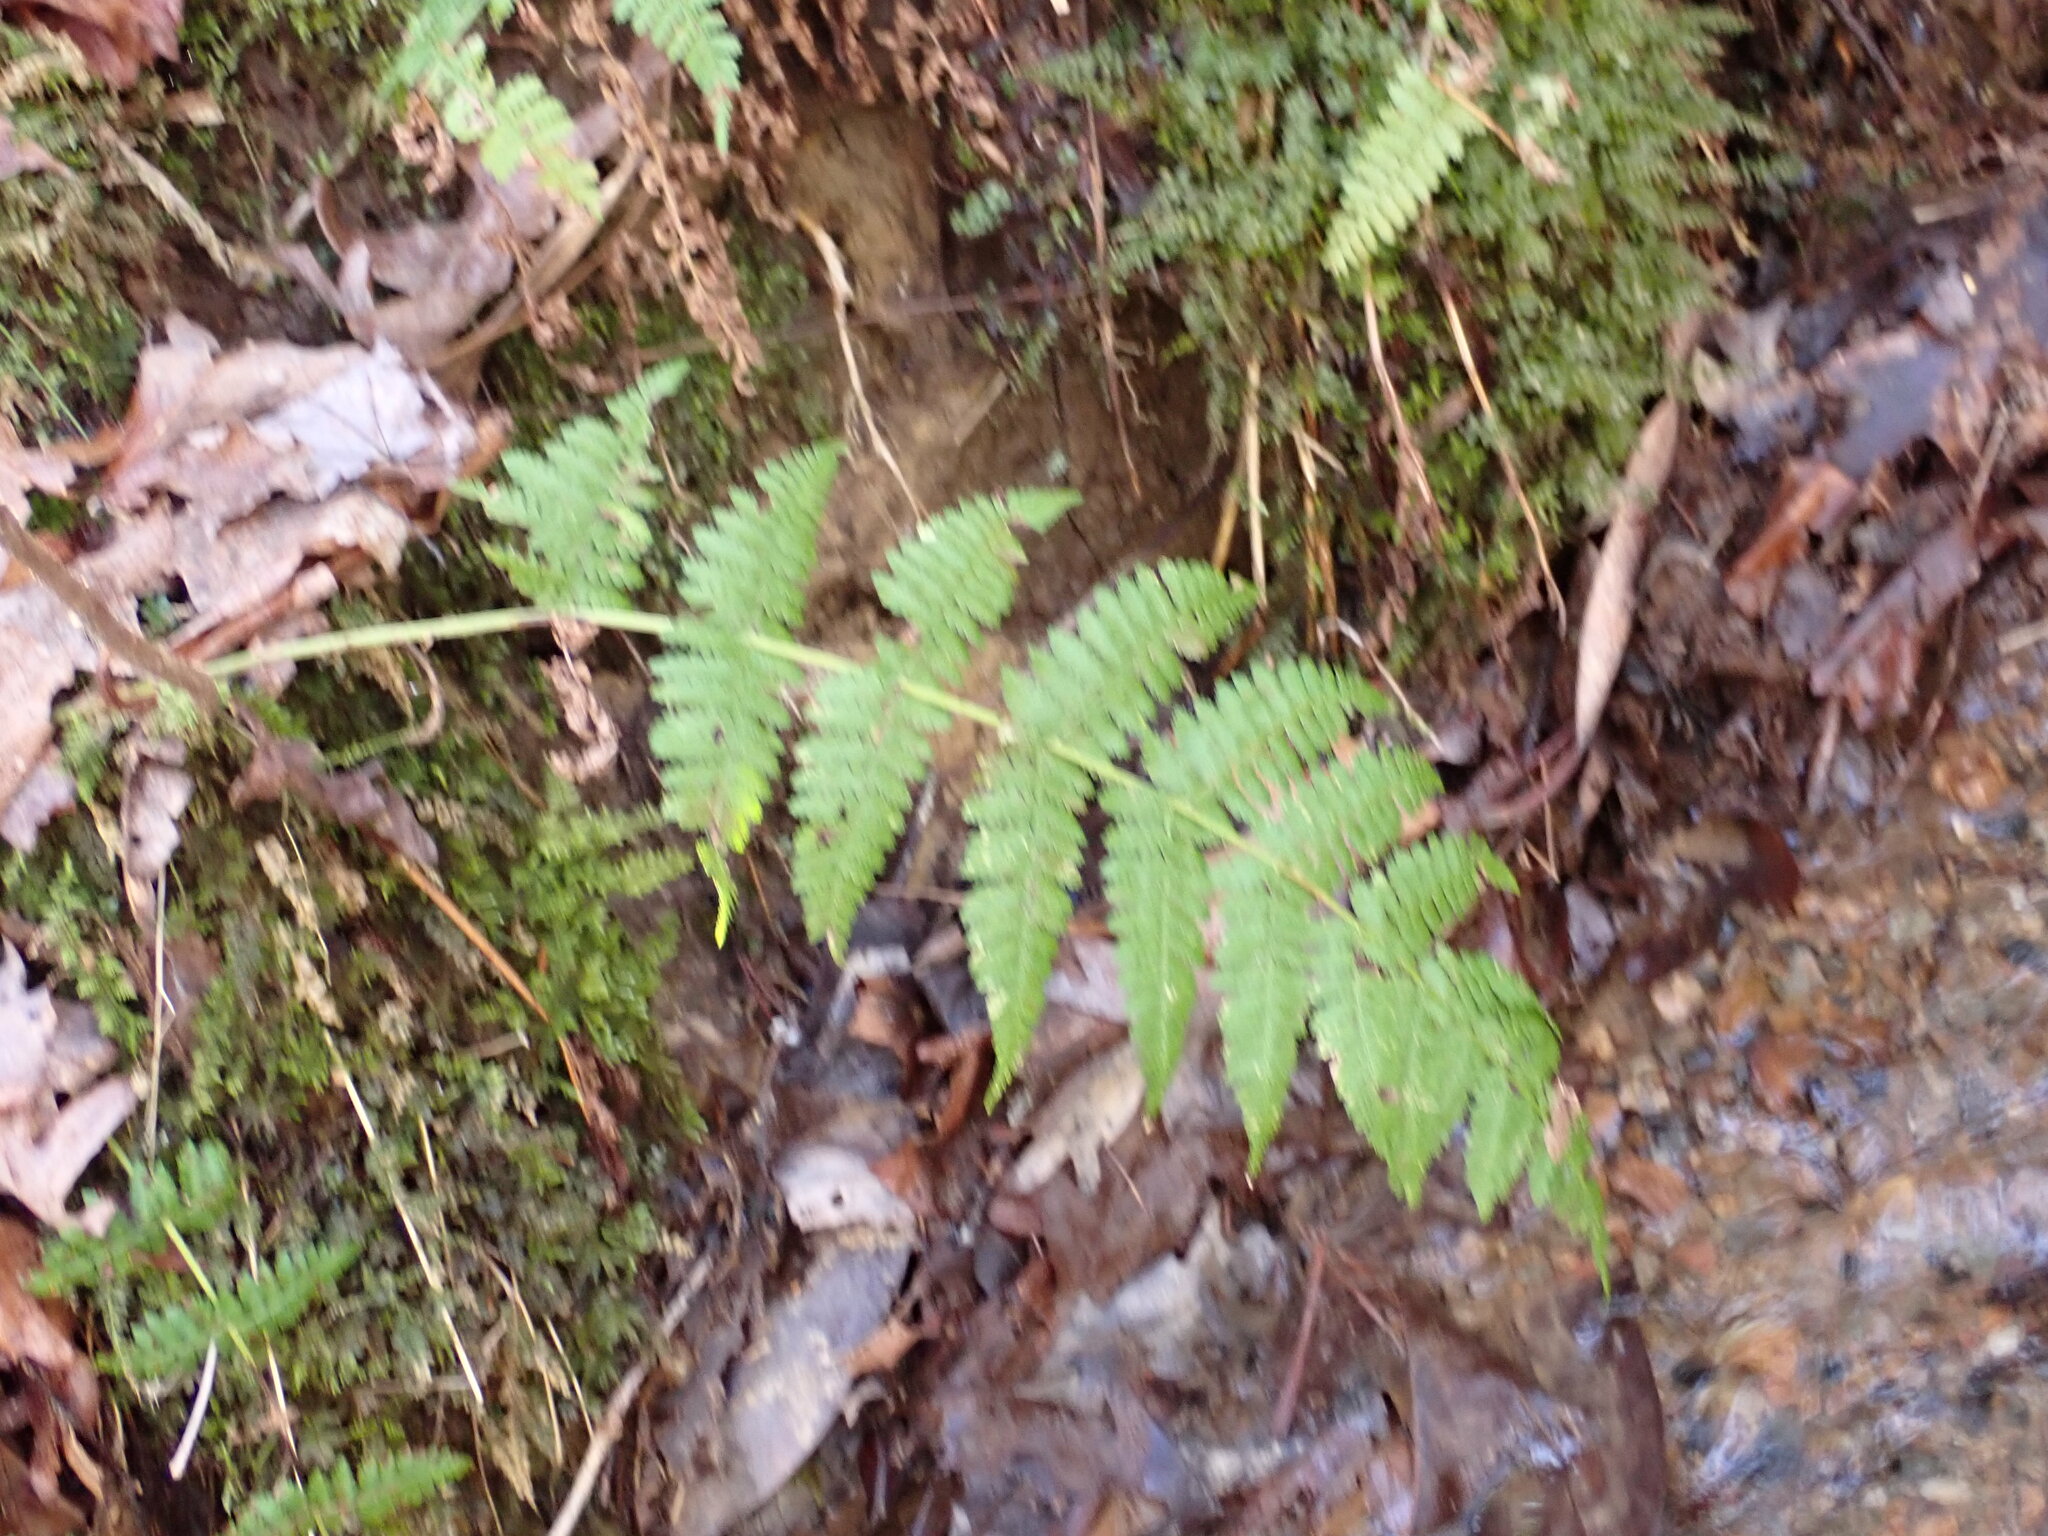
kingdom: Plantae
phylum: Tracheophyta
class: Polypodiopsida
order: Polypodiales
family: Dryopteridaceae
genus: Dryopteris
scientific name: Dryopteris intermedia
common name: Evergreen wood fern
